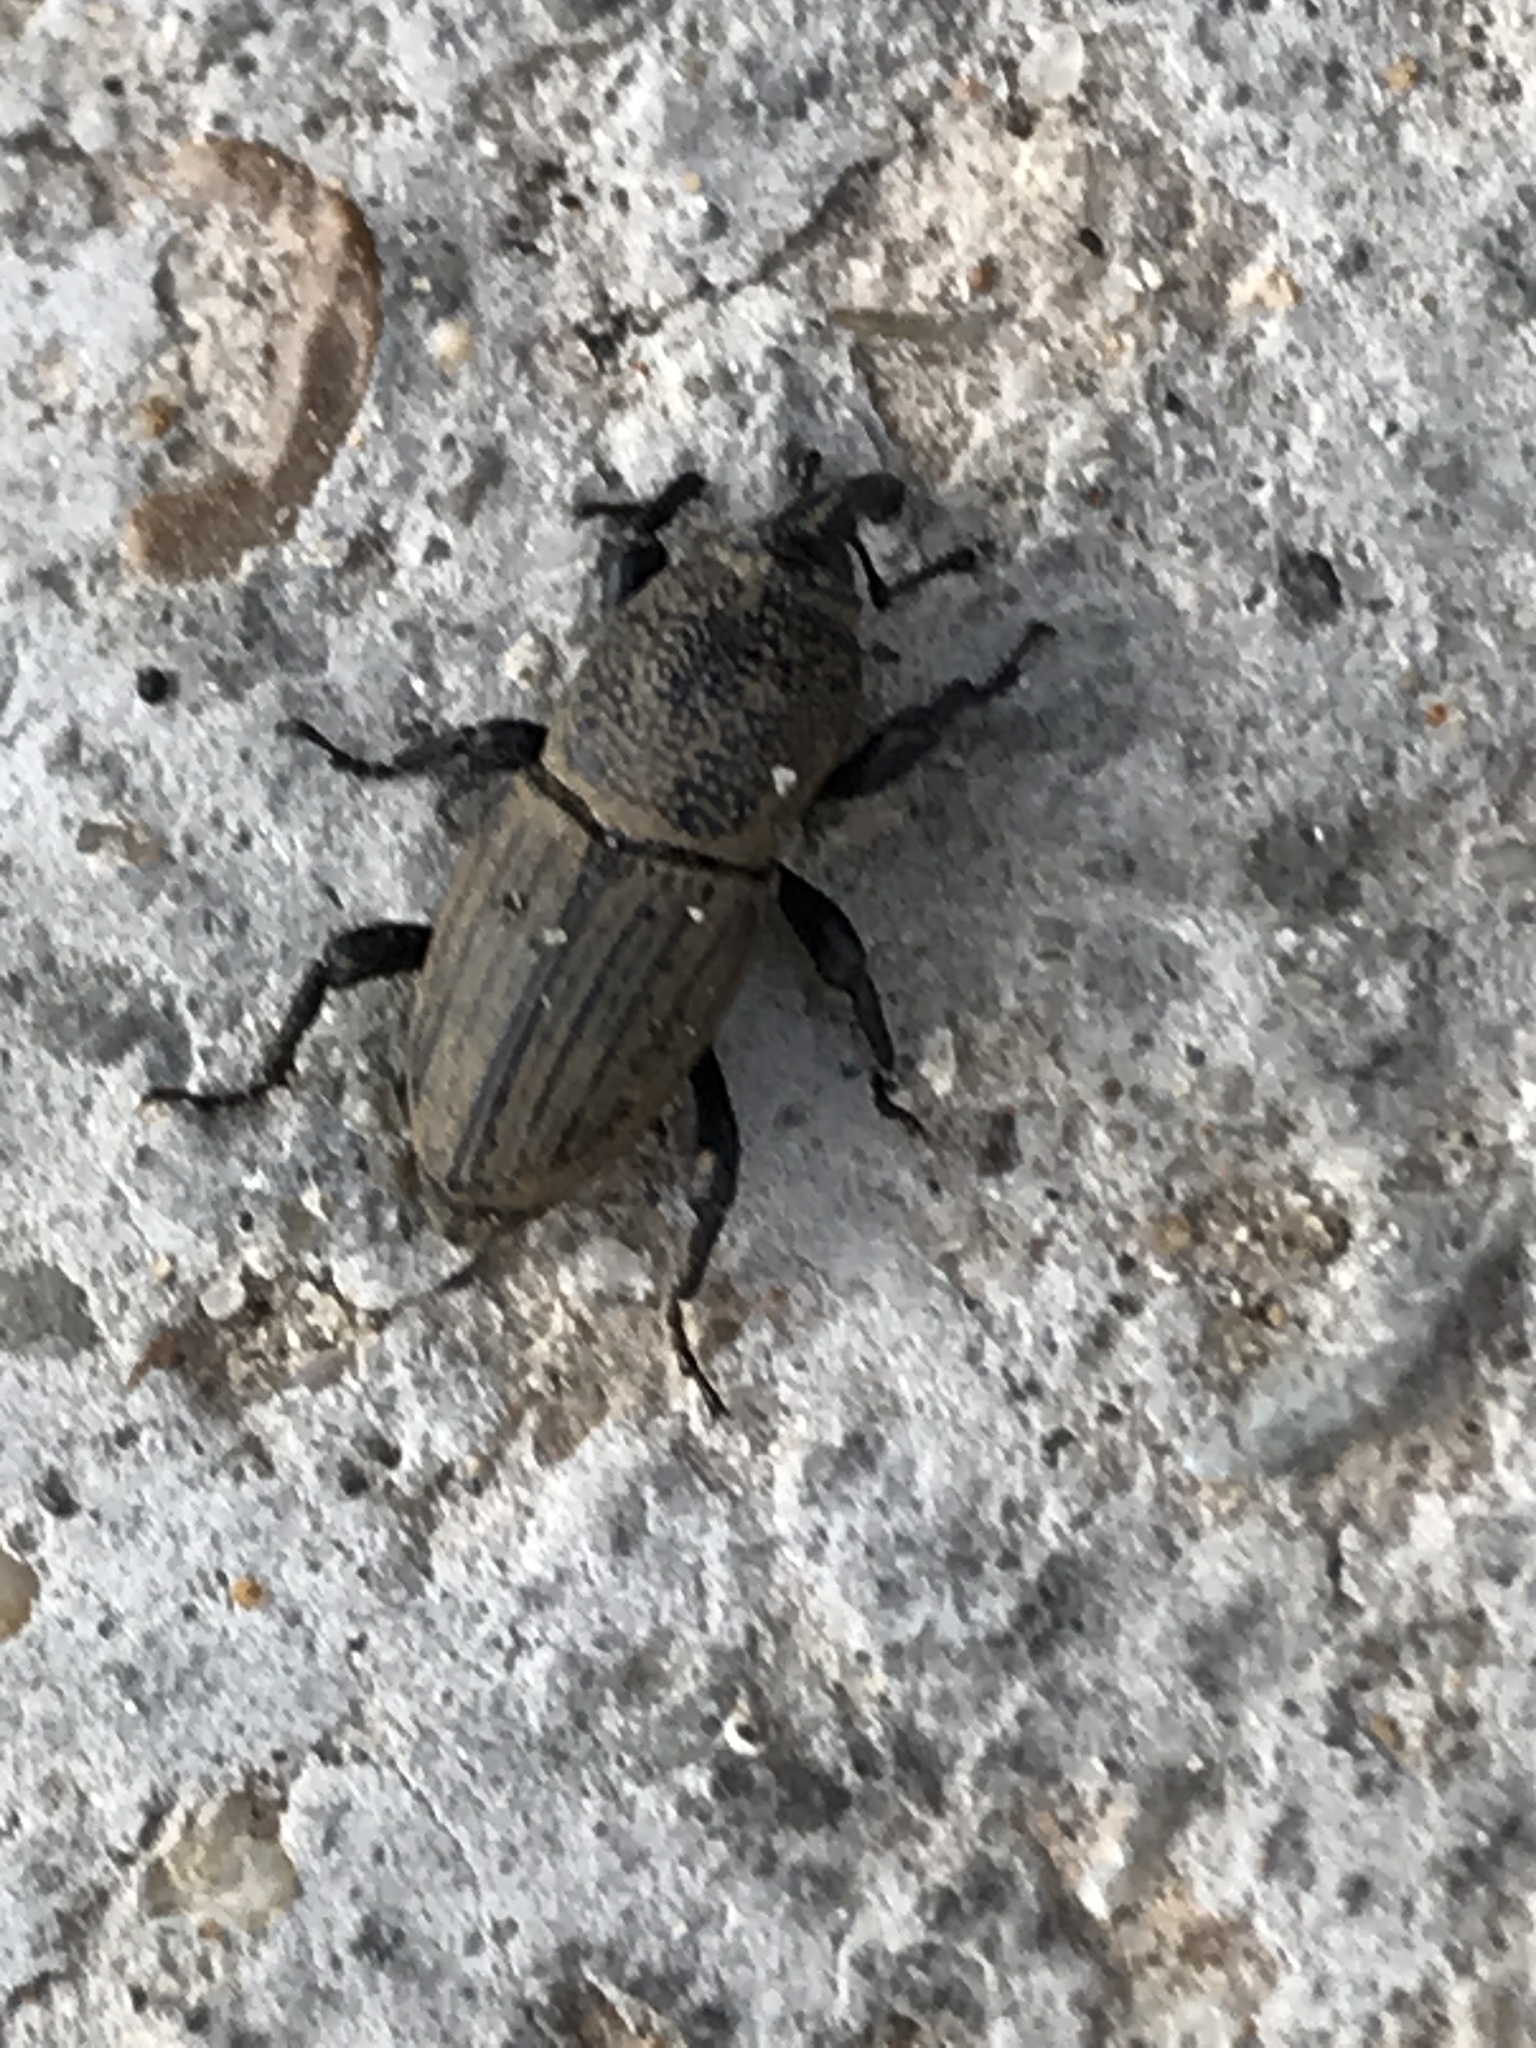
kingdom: Animalia
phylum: Arthropoda
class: Insecta
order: Coleoptera
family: Dryophthoridae
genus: Sphenophorus
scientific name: Sphenophorus coesifrons
